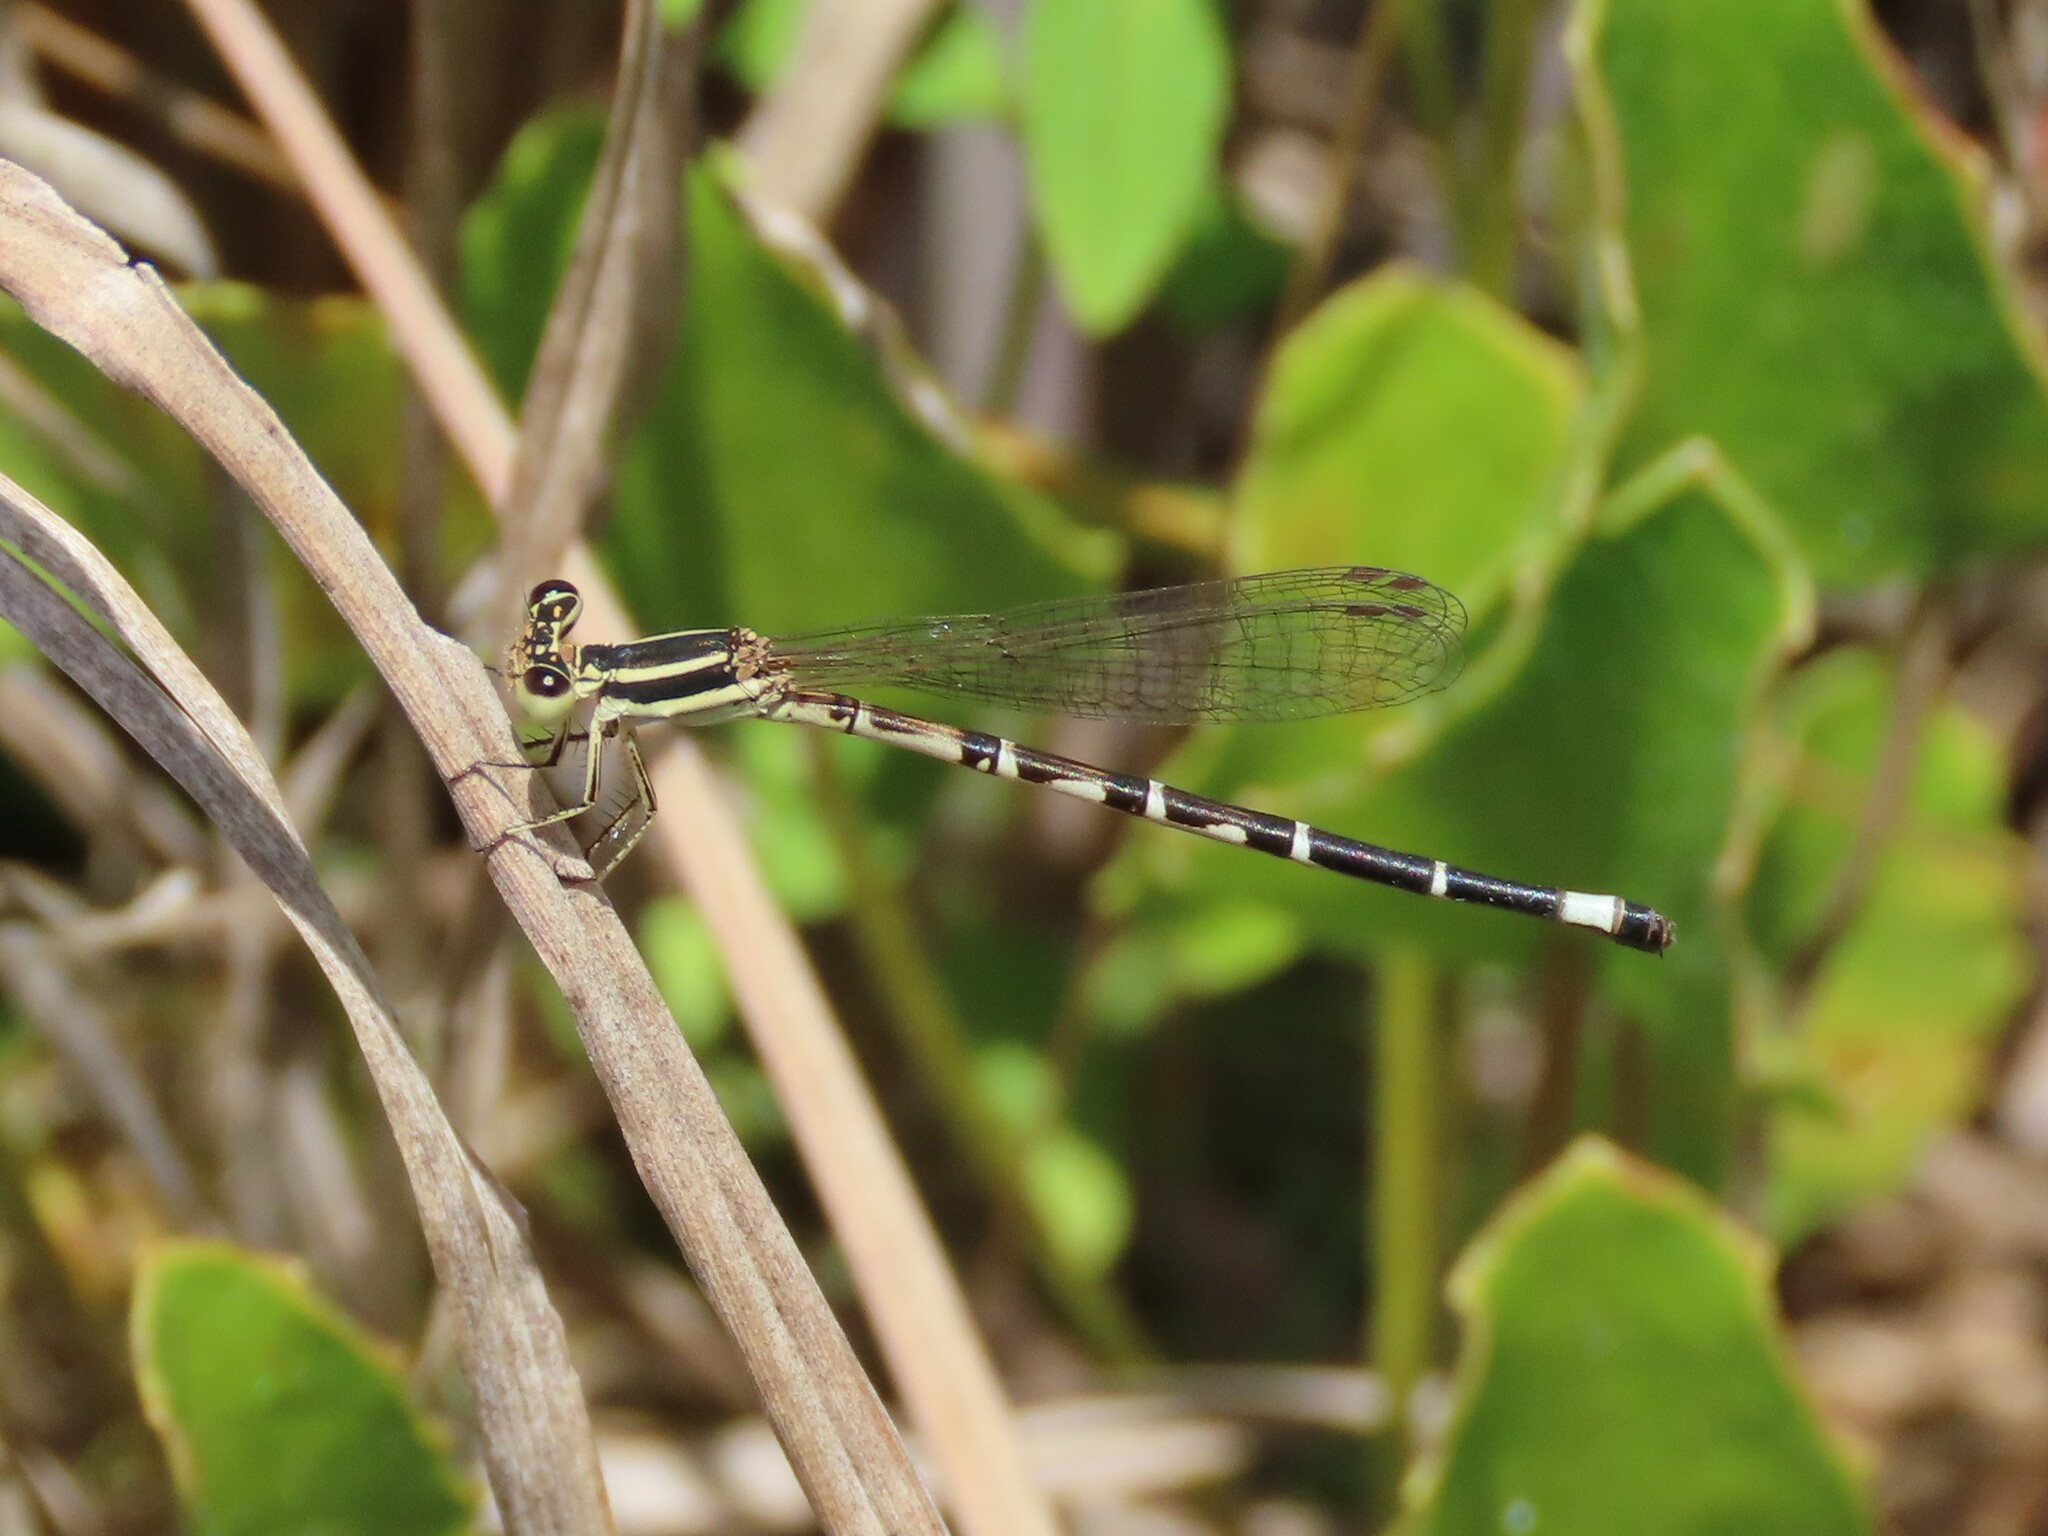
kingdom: Animalia
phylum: Arthropoda
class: Insecta
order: Odonata
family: Coenagrionidae
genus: Argia
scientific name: Argia bipunctulata
